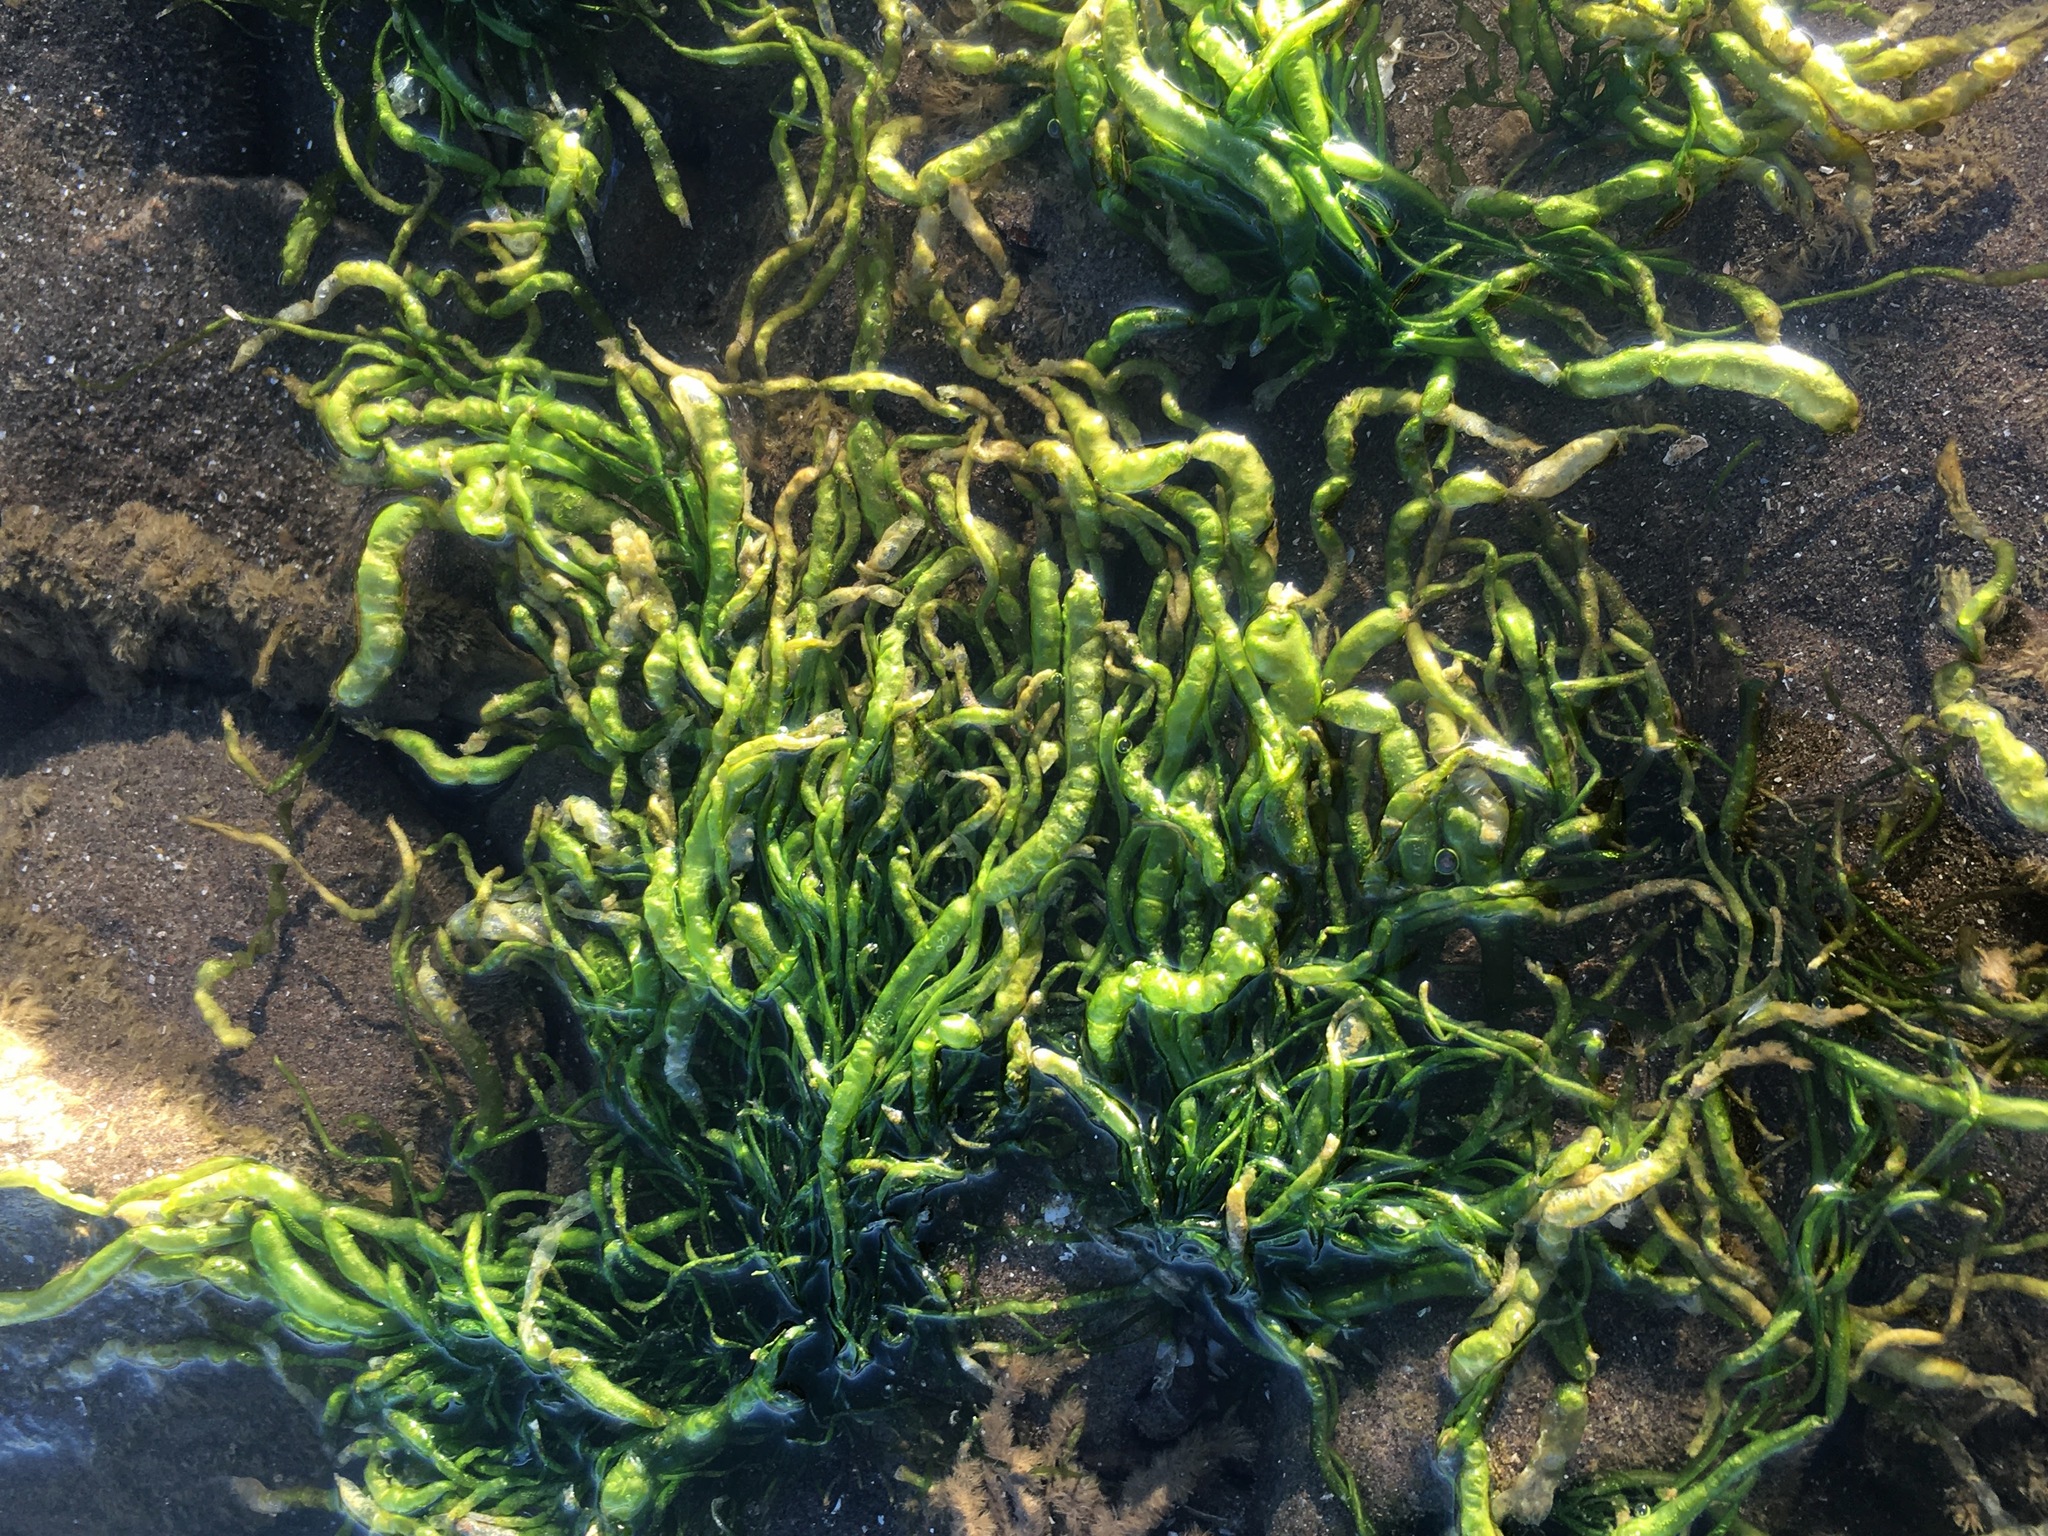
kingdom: Plantae
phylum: Chlorophyta
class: Ulvophyceae
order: Ulvales
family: Ulvaceae
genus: Ulva
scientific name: Ulva intestinalis
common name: Gut weed
